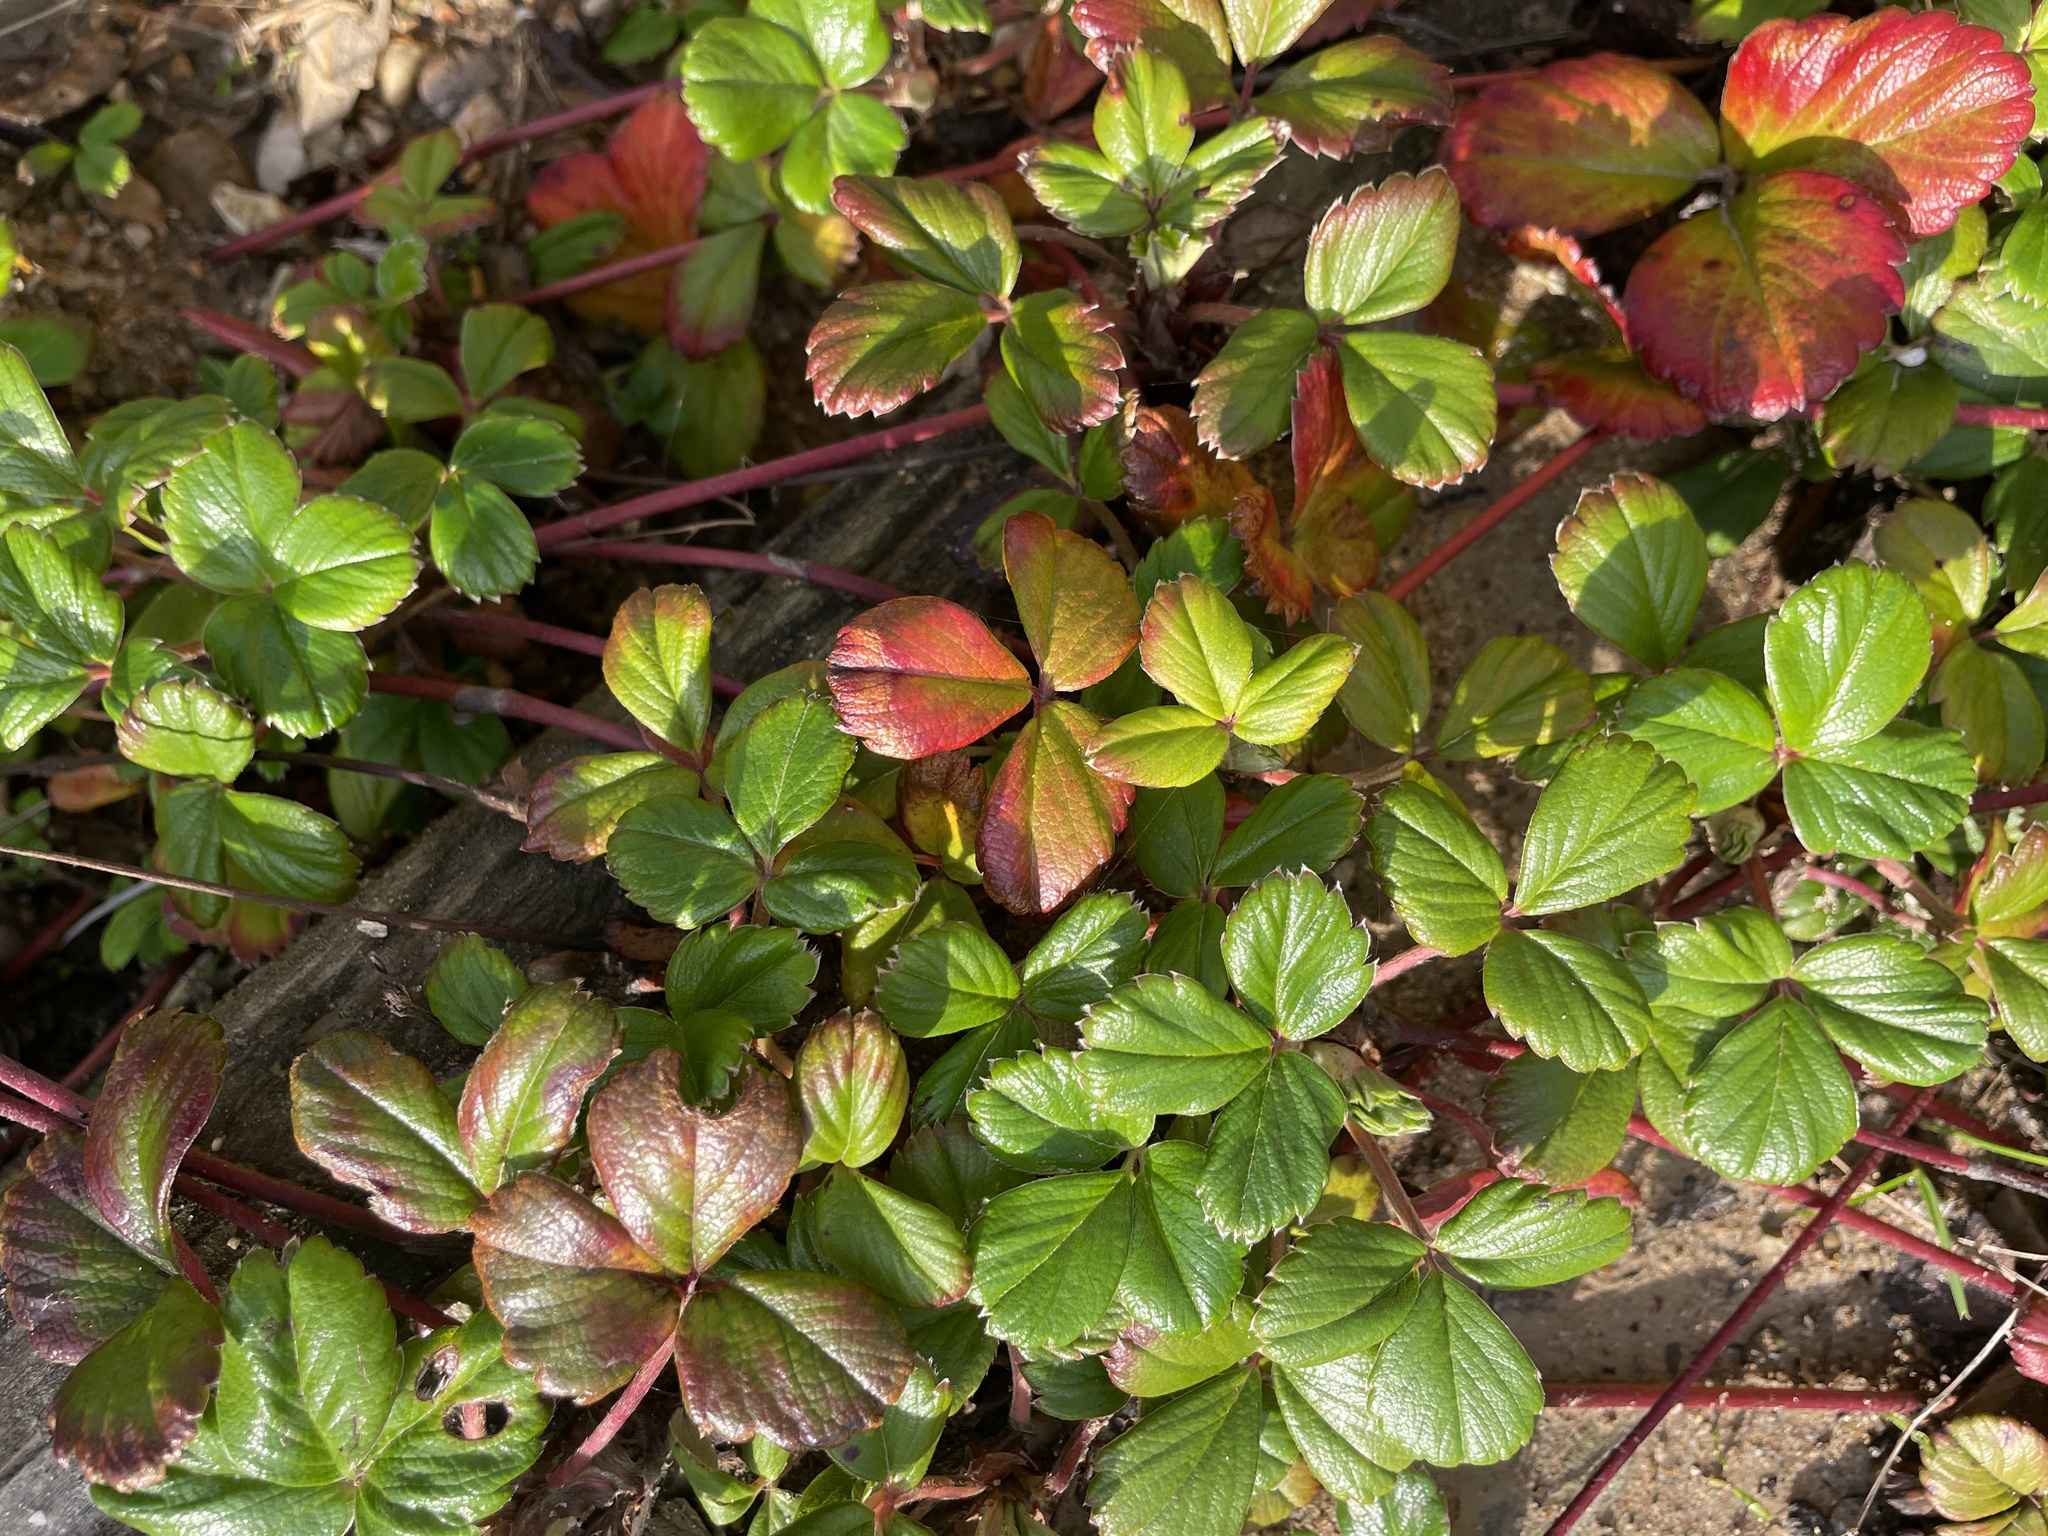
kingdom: Plantae
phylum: Tracheophyta
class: Magnoliopsida
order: Rosales
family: Rosaceae
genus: Fragaria
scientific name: Fragaria chiloensis
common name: Beach strawberry
